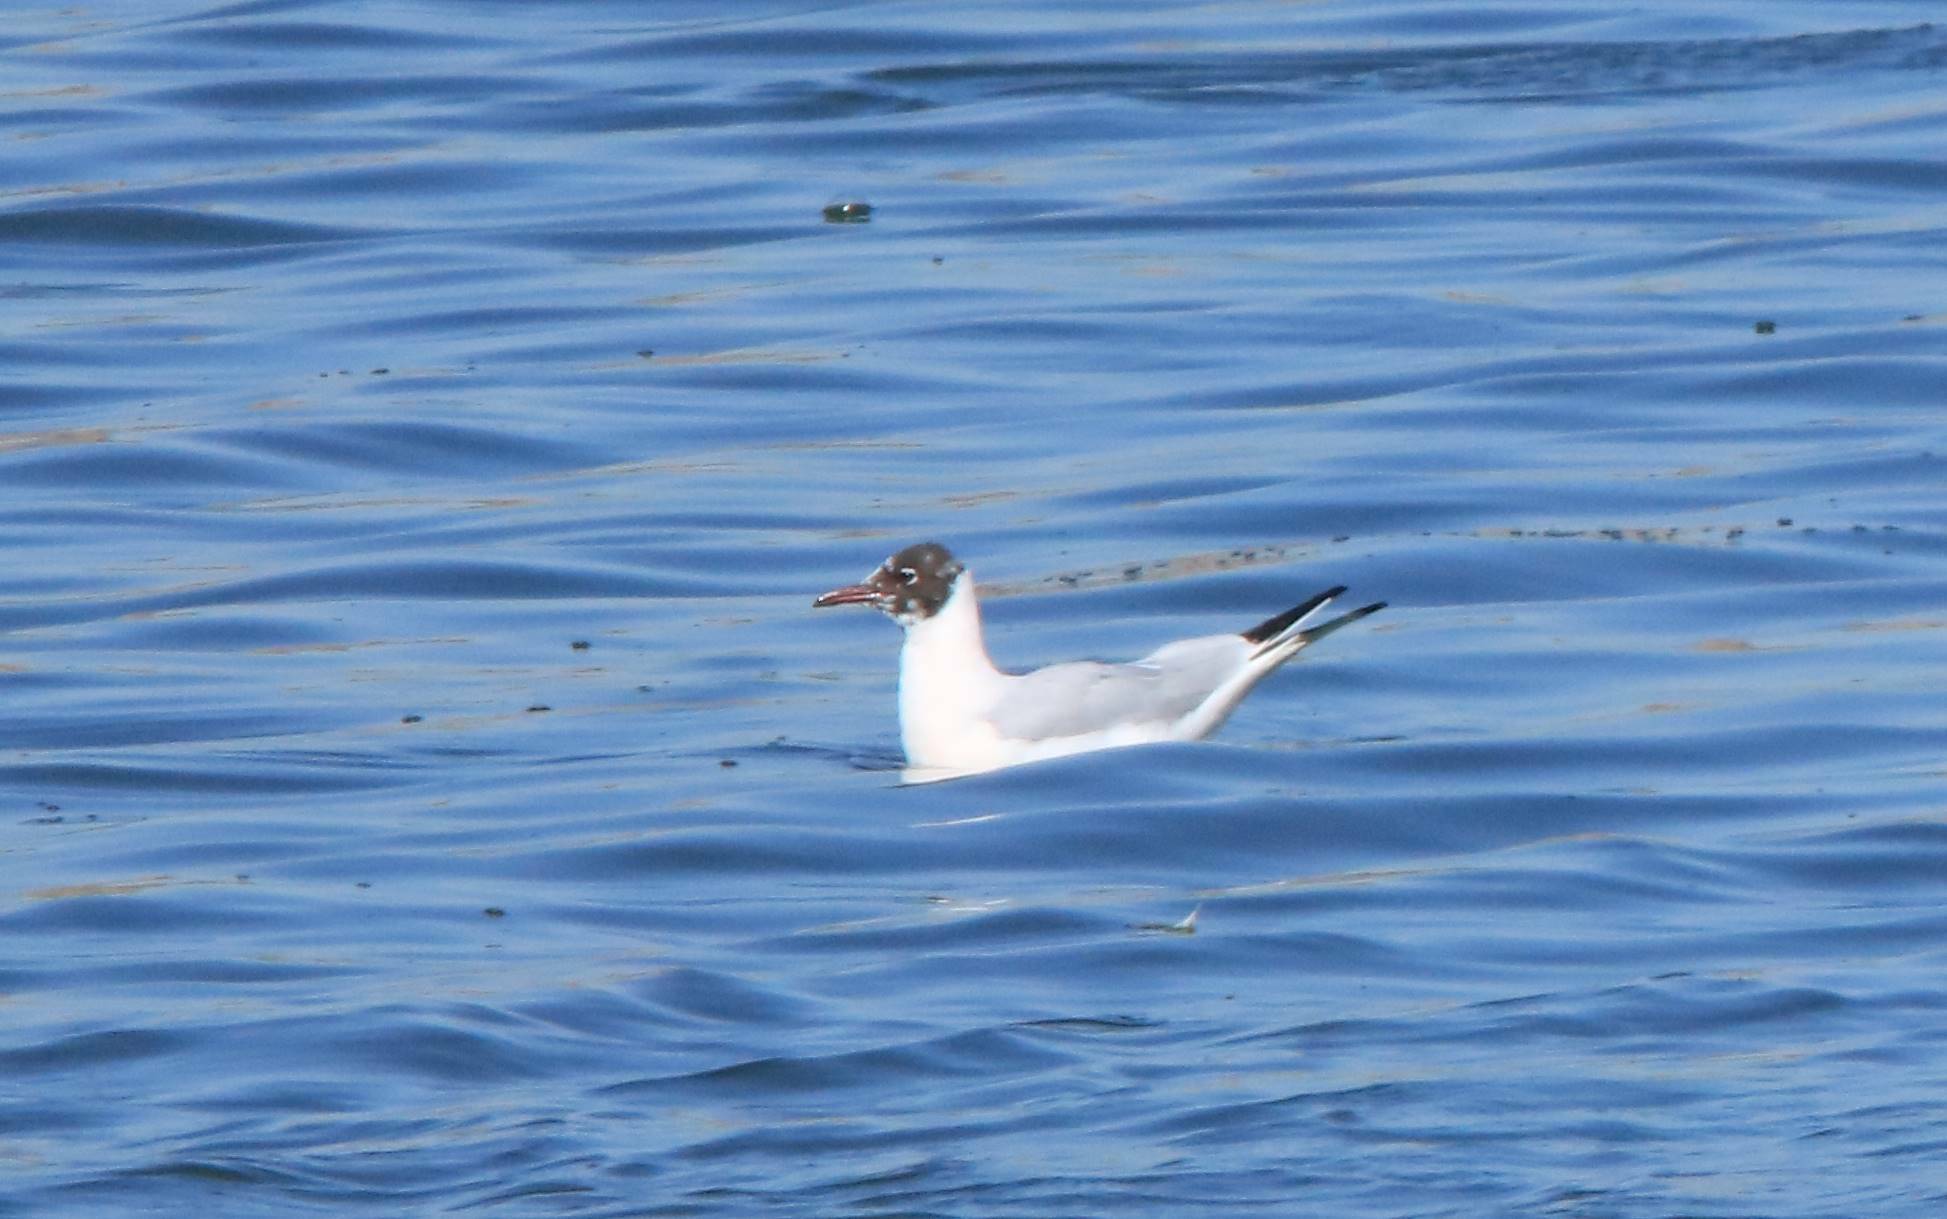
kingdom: Animalia
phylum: Chordata
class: Aves
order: Charadriiformes
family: Laridae
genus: Chroicocephalus
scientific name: Chroicocephalus ridibundus
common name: Black-headed gull
